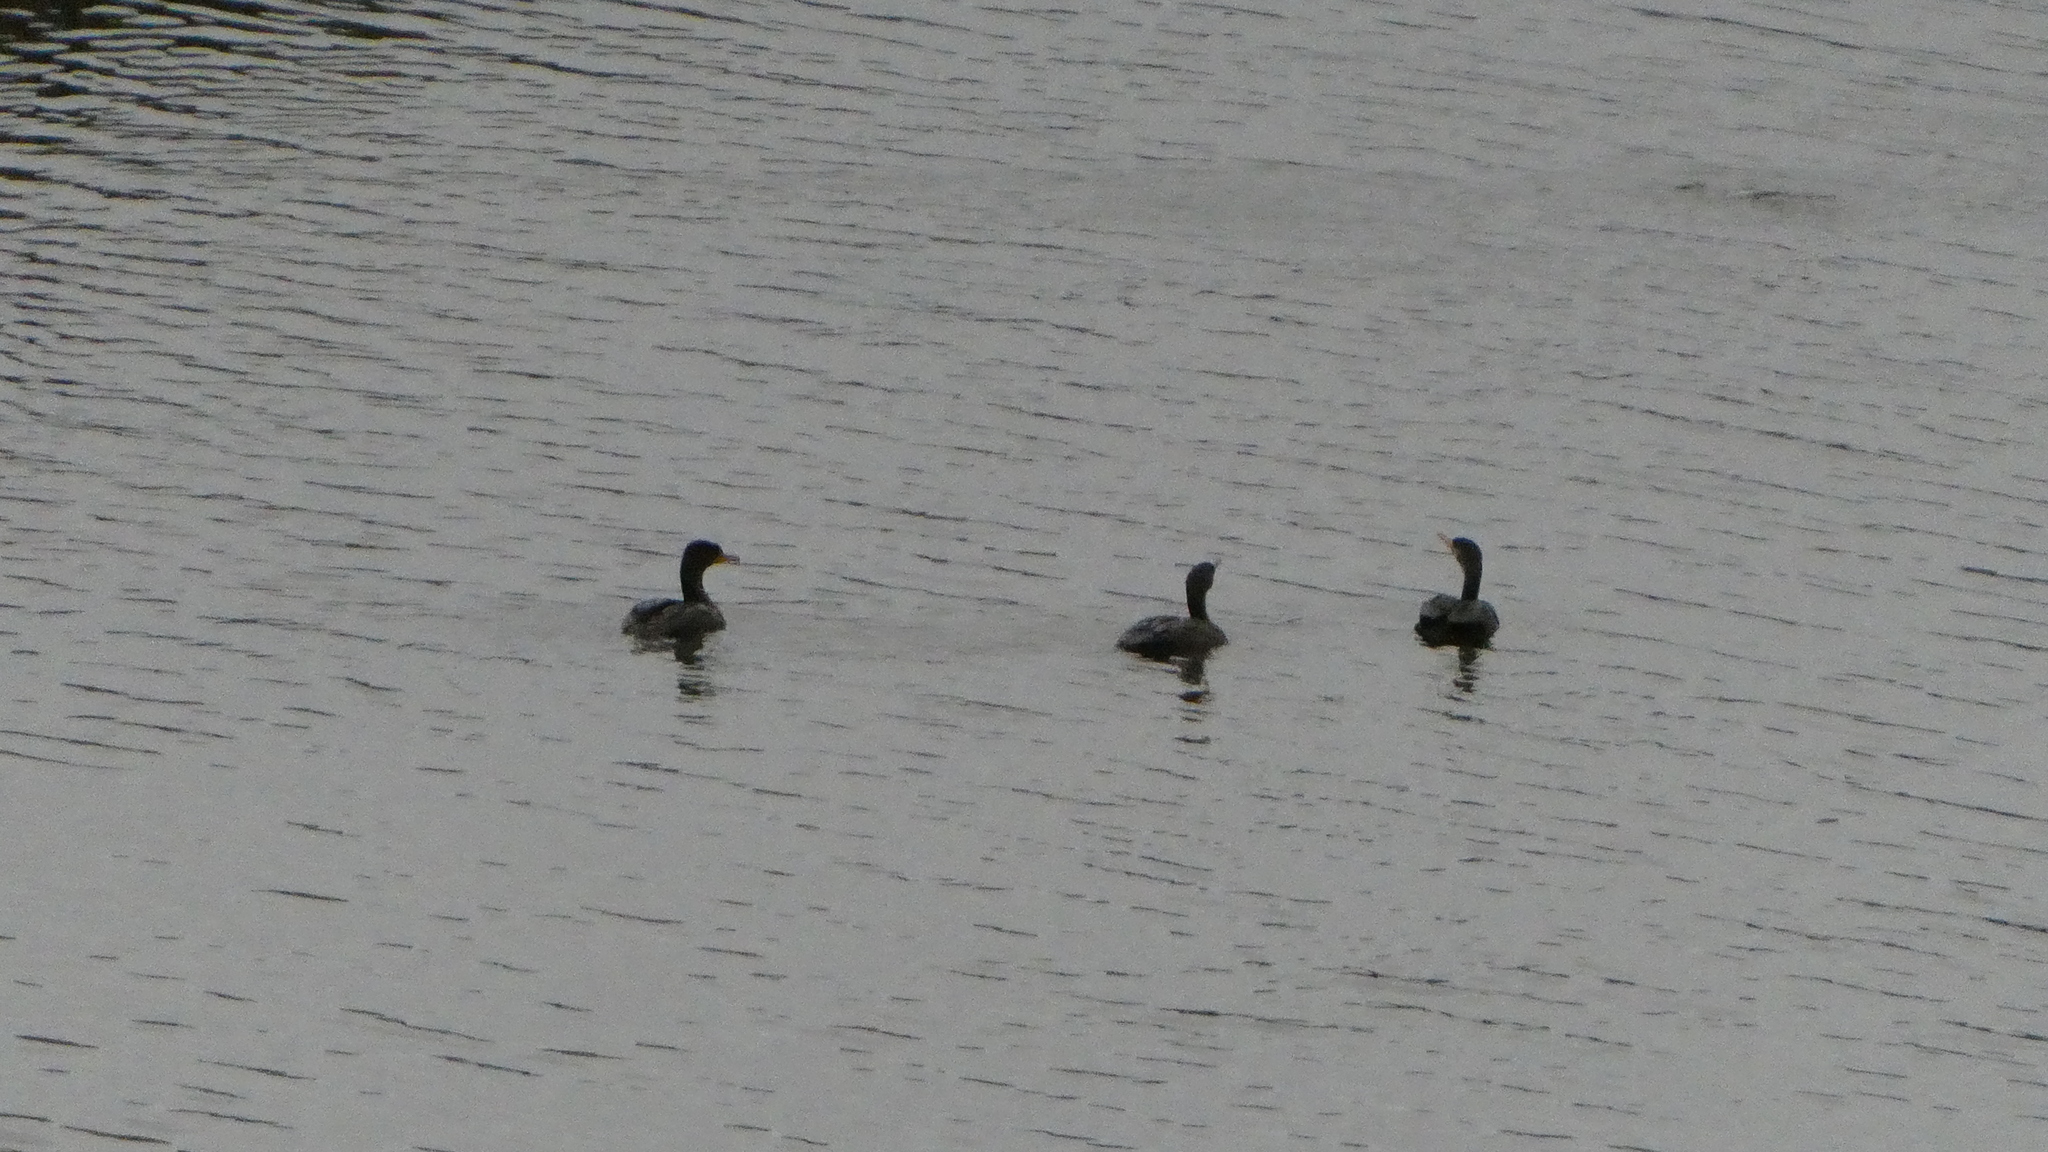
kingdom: Animalia
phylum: Chordata
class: Aves
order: Suliformes
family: Phalacrocoracidae
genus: Phalacrocorax
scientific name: Phalacrocorax auritus
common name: Double-crested cormorant
